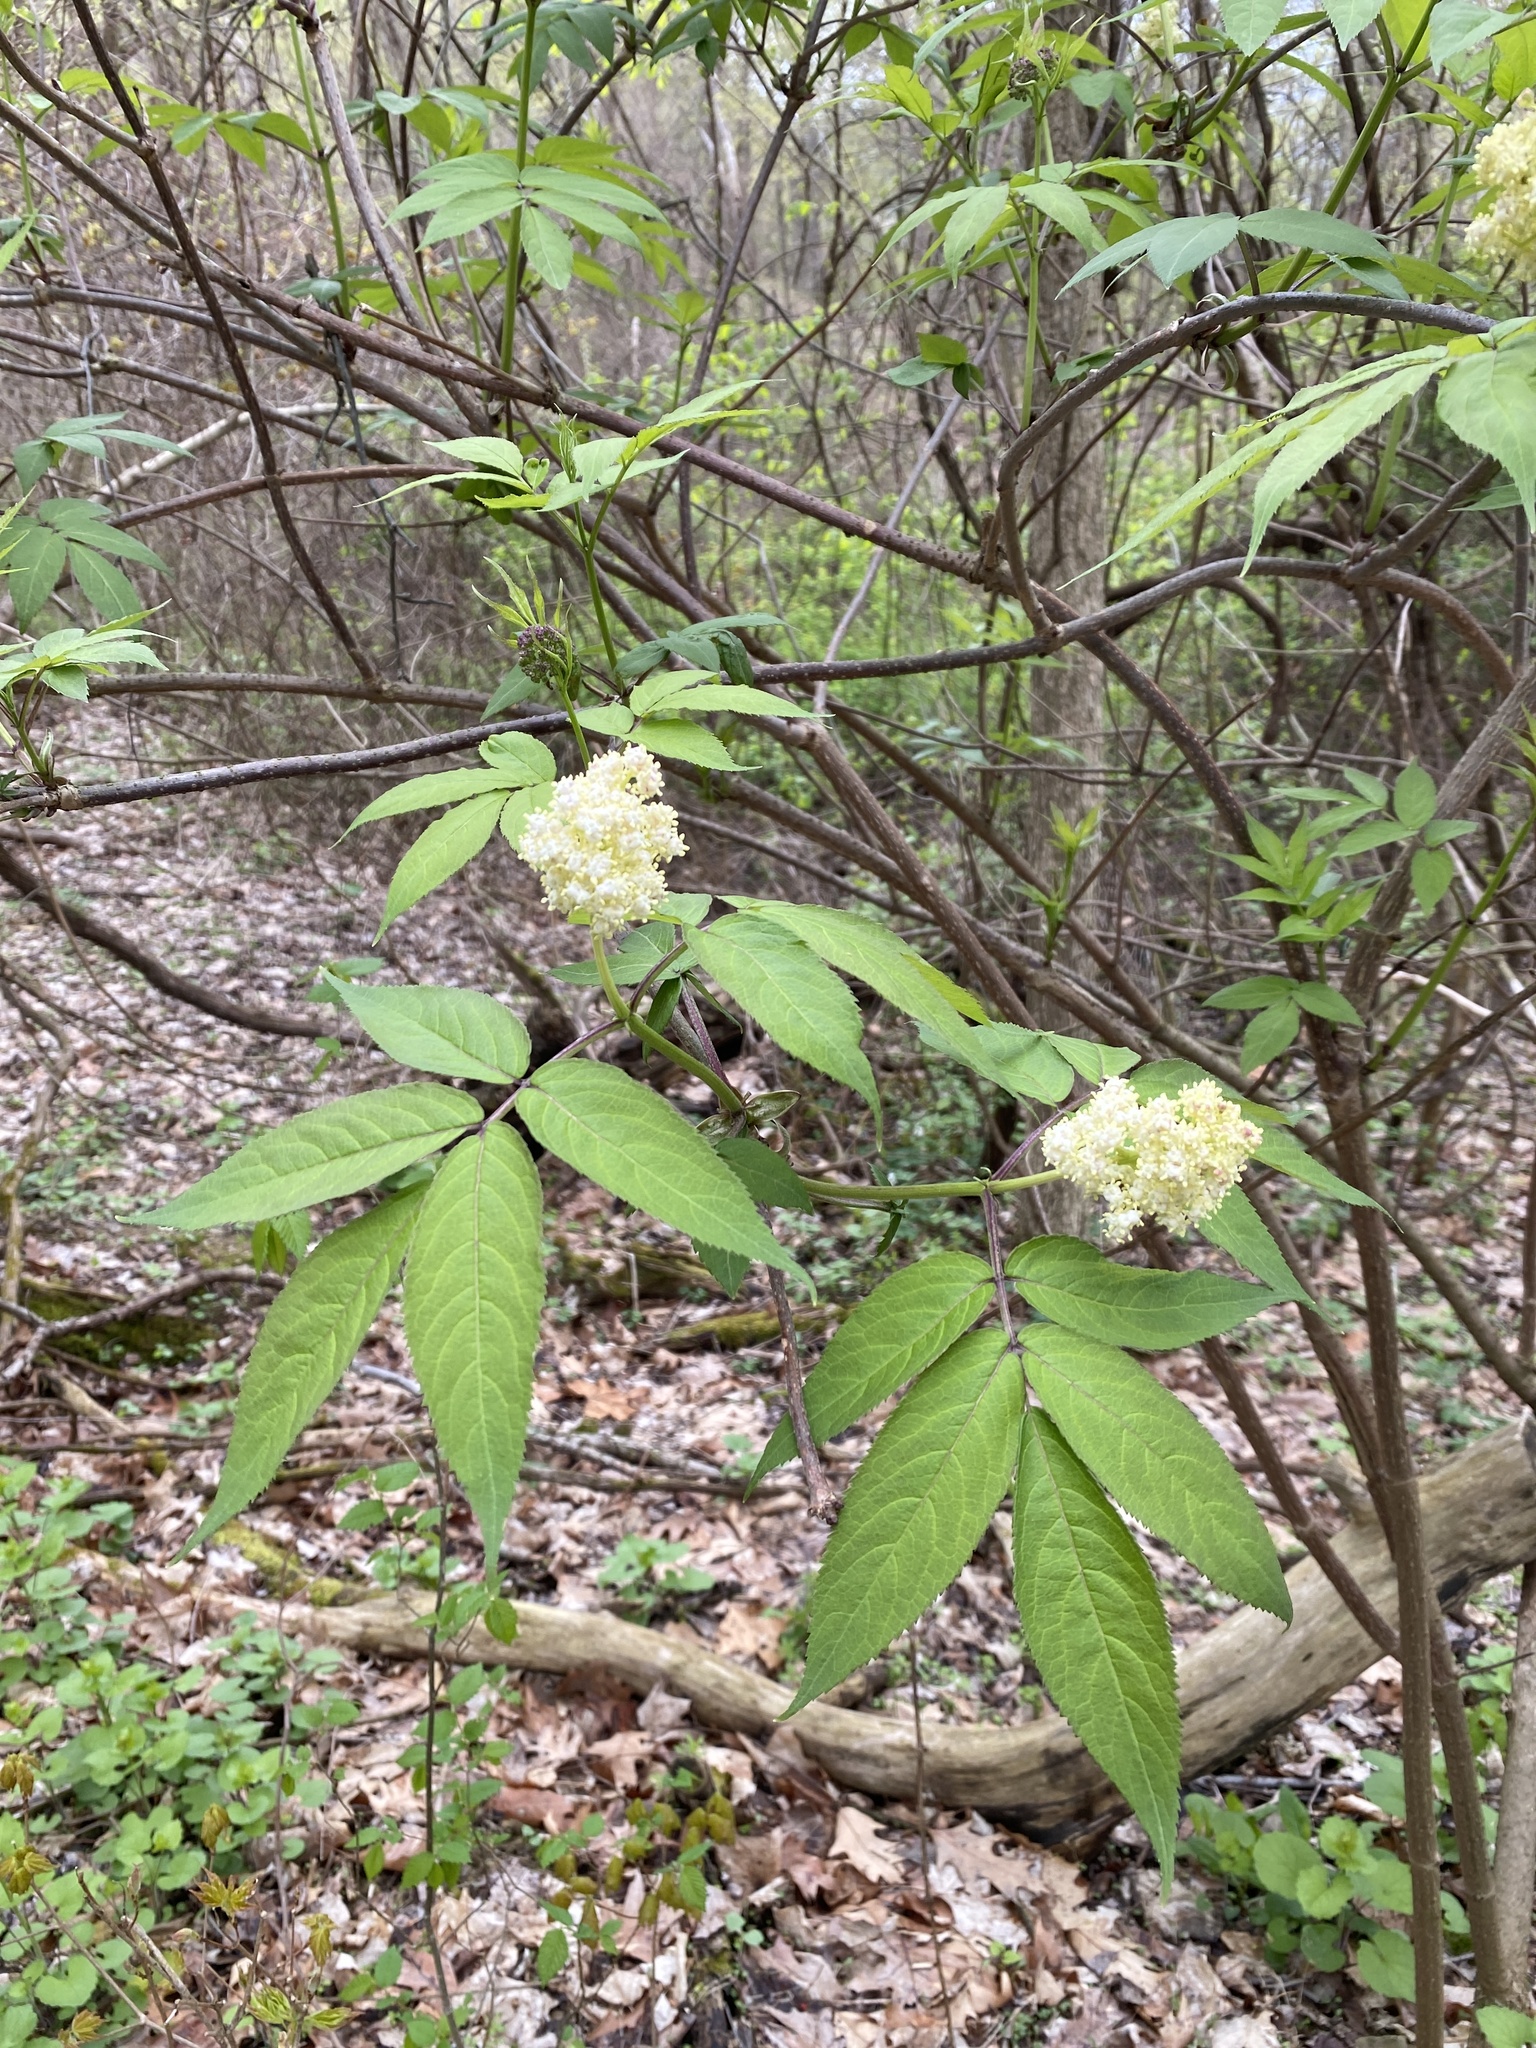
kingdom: Plantae
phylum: Tracheophyta
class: Magnoliopsida
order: Dipsacales
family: Viburnaceae
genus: Sambucus
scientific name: Sambucus racemosa
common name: Red-berried elder
